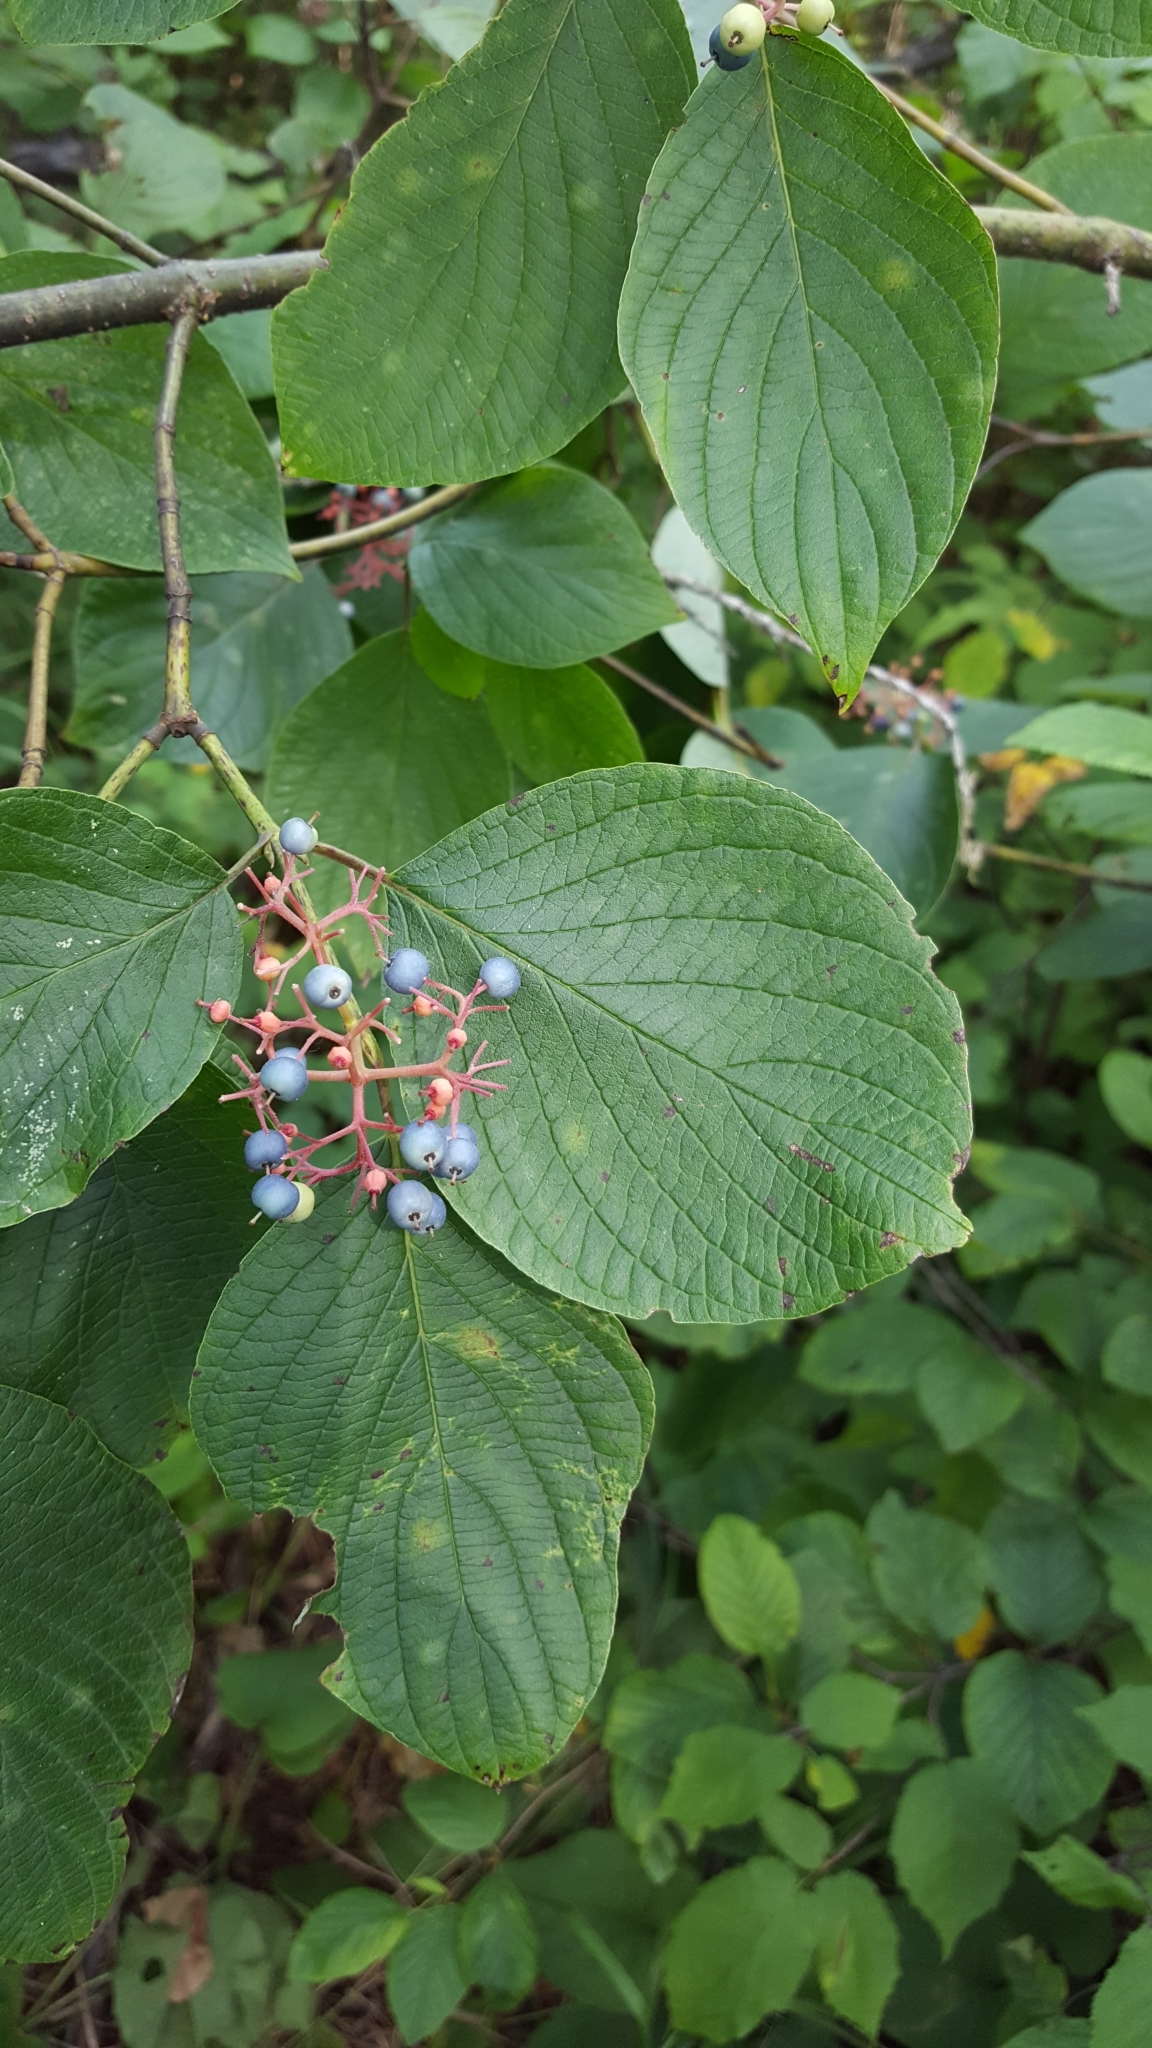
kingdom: Plantae
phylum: Tracheophyta
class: Magnoliopsida
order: Cornales
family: Cornaceae
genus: Cornus
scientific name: Cornus rugosa
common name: Round-leaf dogwood
